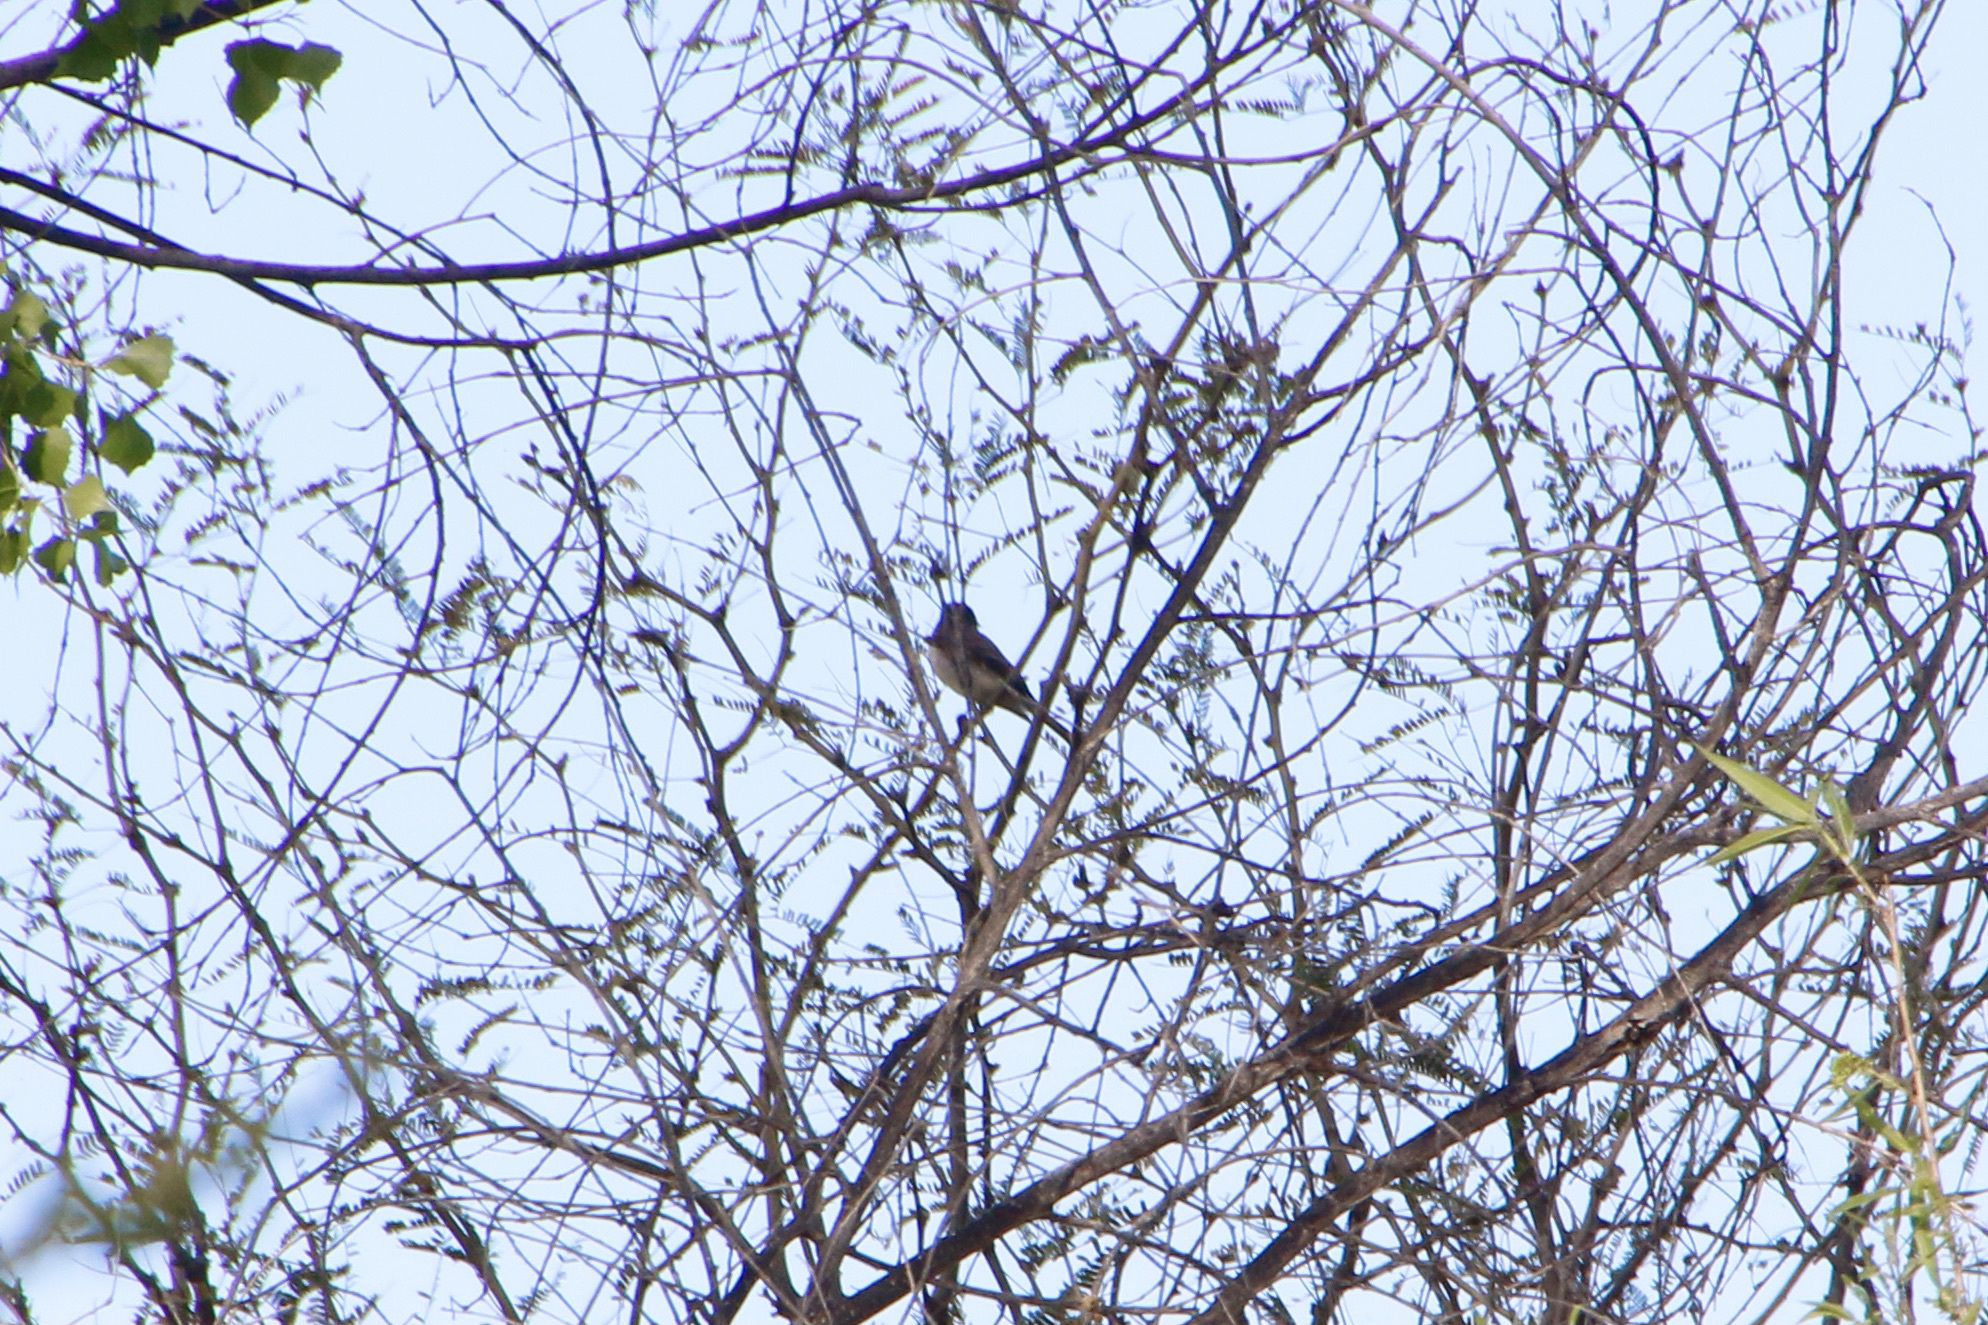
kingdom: Animalia
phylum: Chordata
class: Aves
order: Passeriformes
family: Tyrannidae
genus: Sayornis
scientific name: Sayornis phoebe
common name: Eastern phoebe
